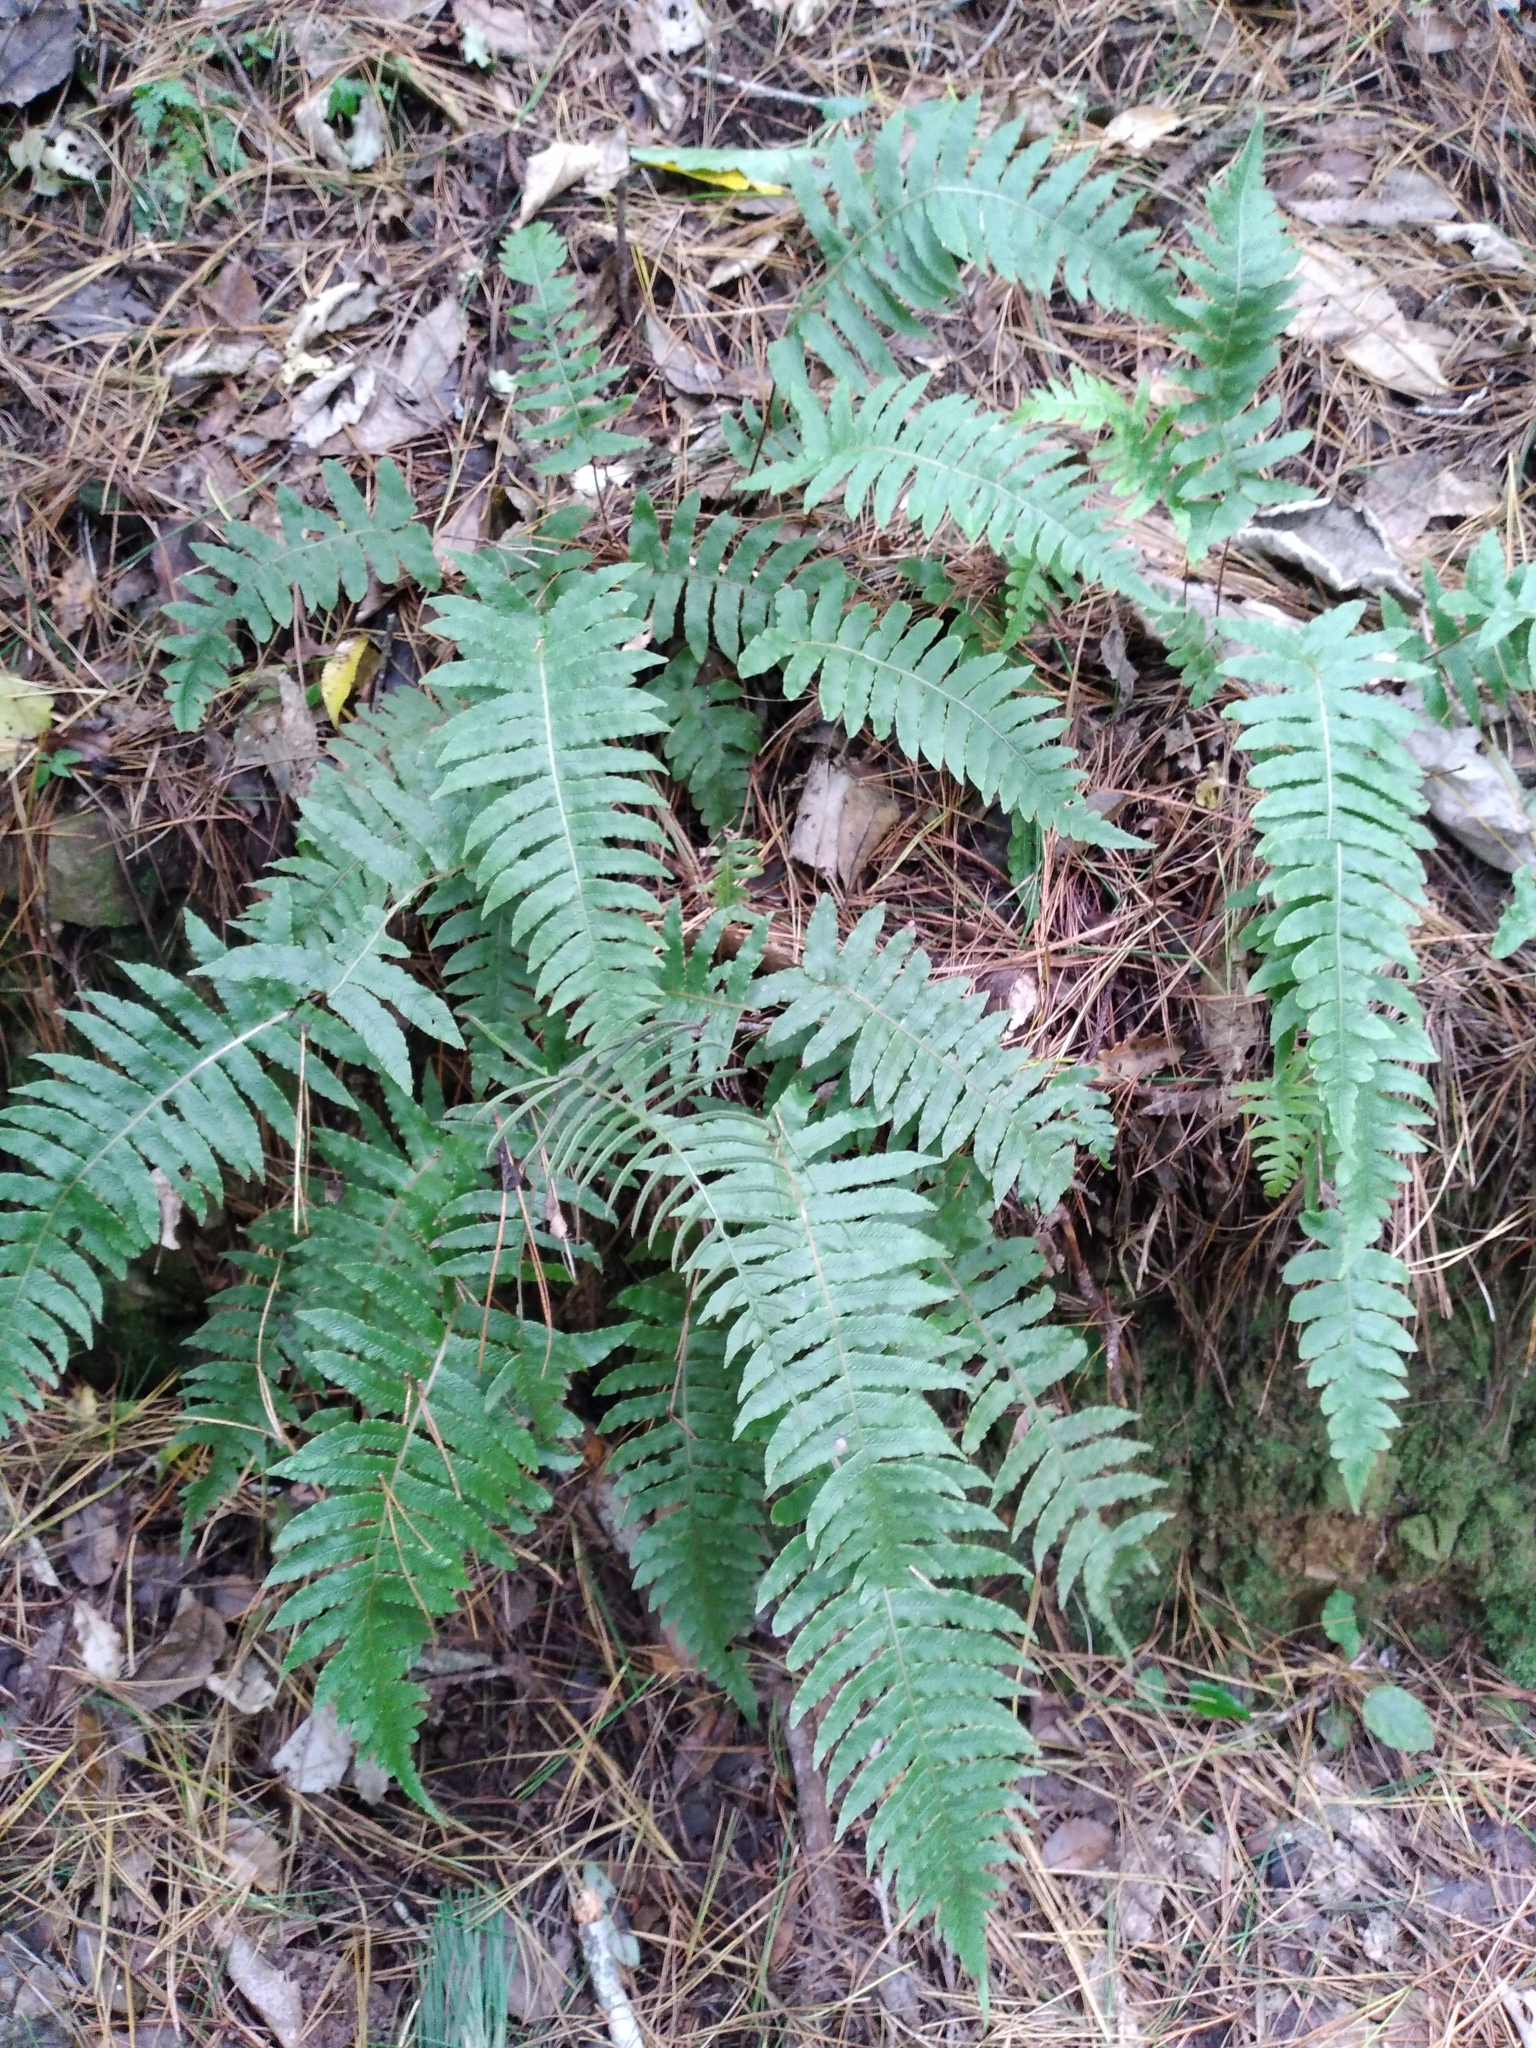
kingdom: Plantae
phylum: Tracheophyta
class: Polypodiopsida
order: Polypodiales
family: Blechnaceae
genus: Cranfillia
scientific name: Cranfillia deltoides
